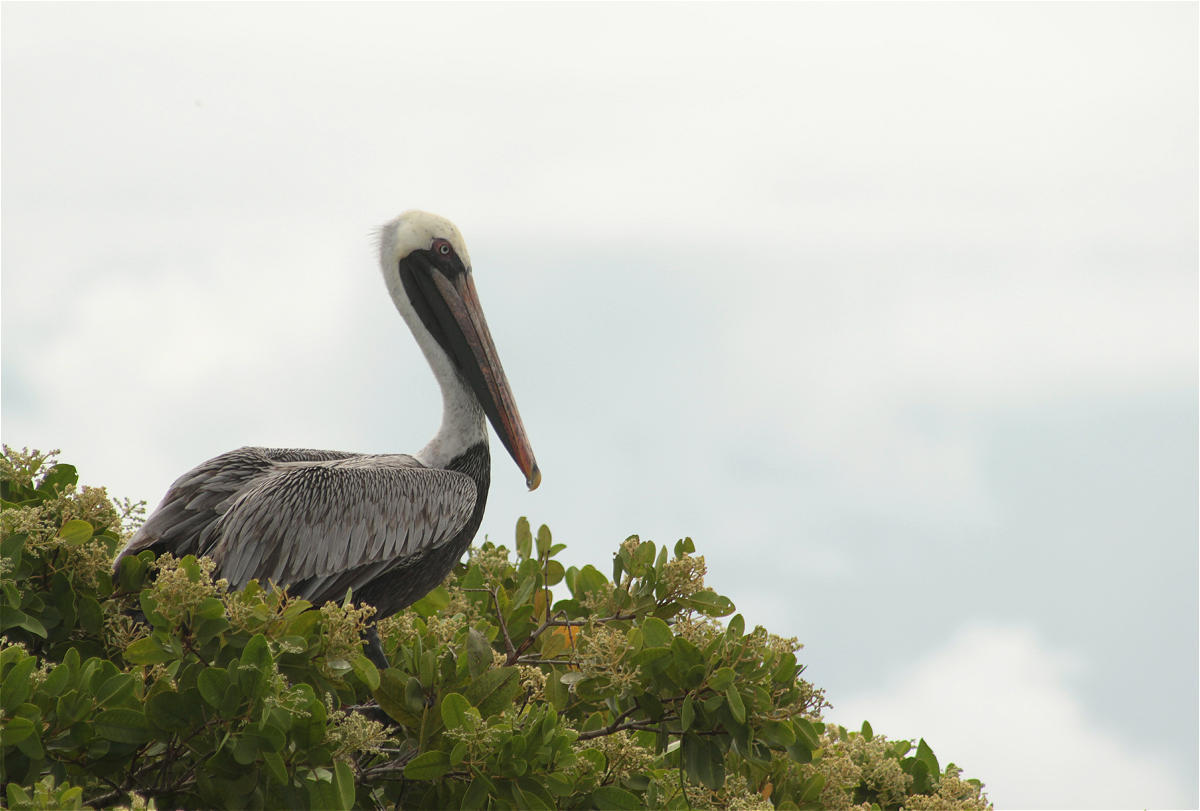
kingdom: Animalia
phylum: Chordata
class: Aves
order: Pelecaniformes
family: Pelecanidae
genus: Pelecanus
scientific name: Pelecanus occidentalis
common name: Brown pelican
